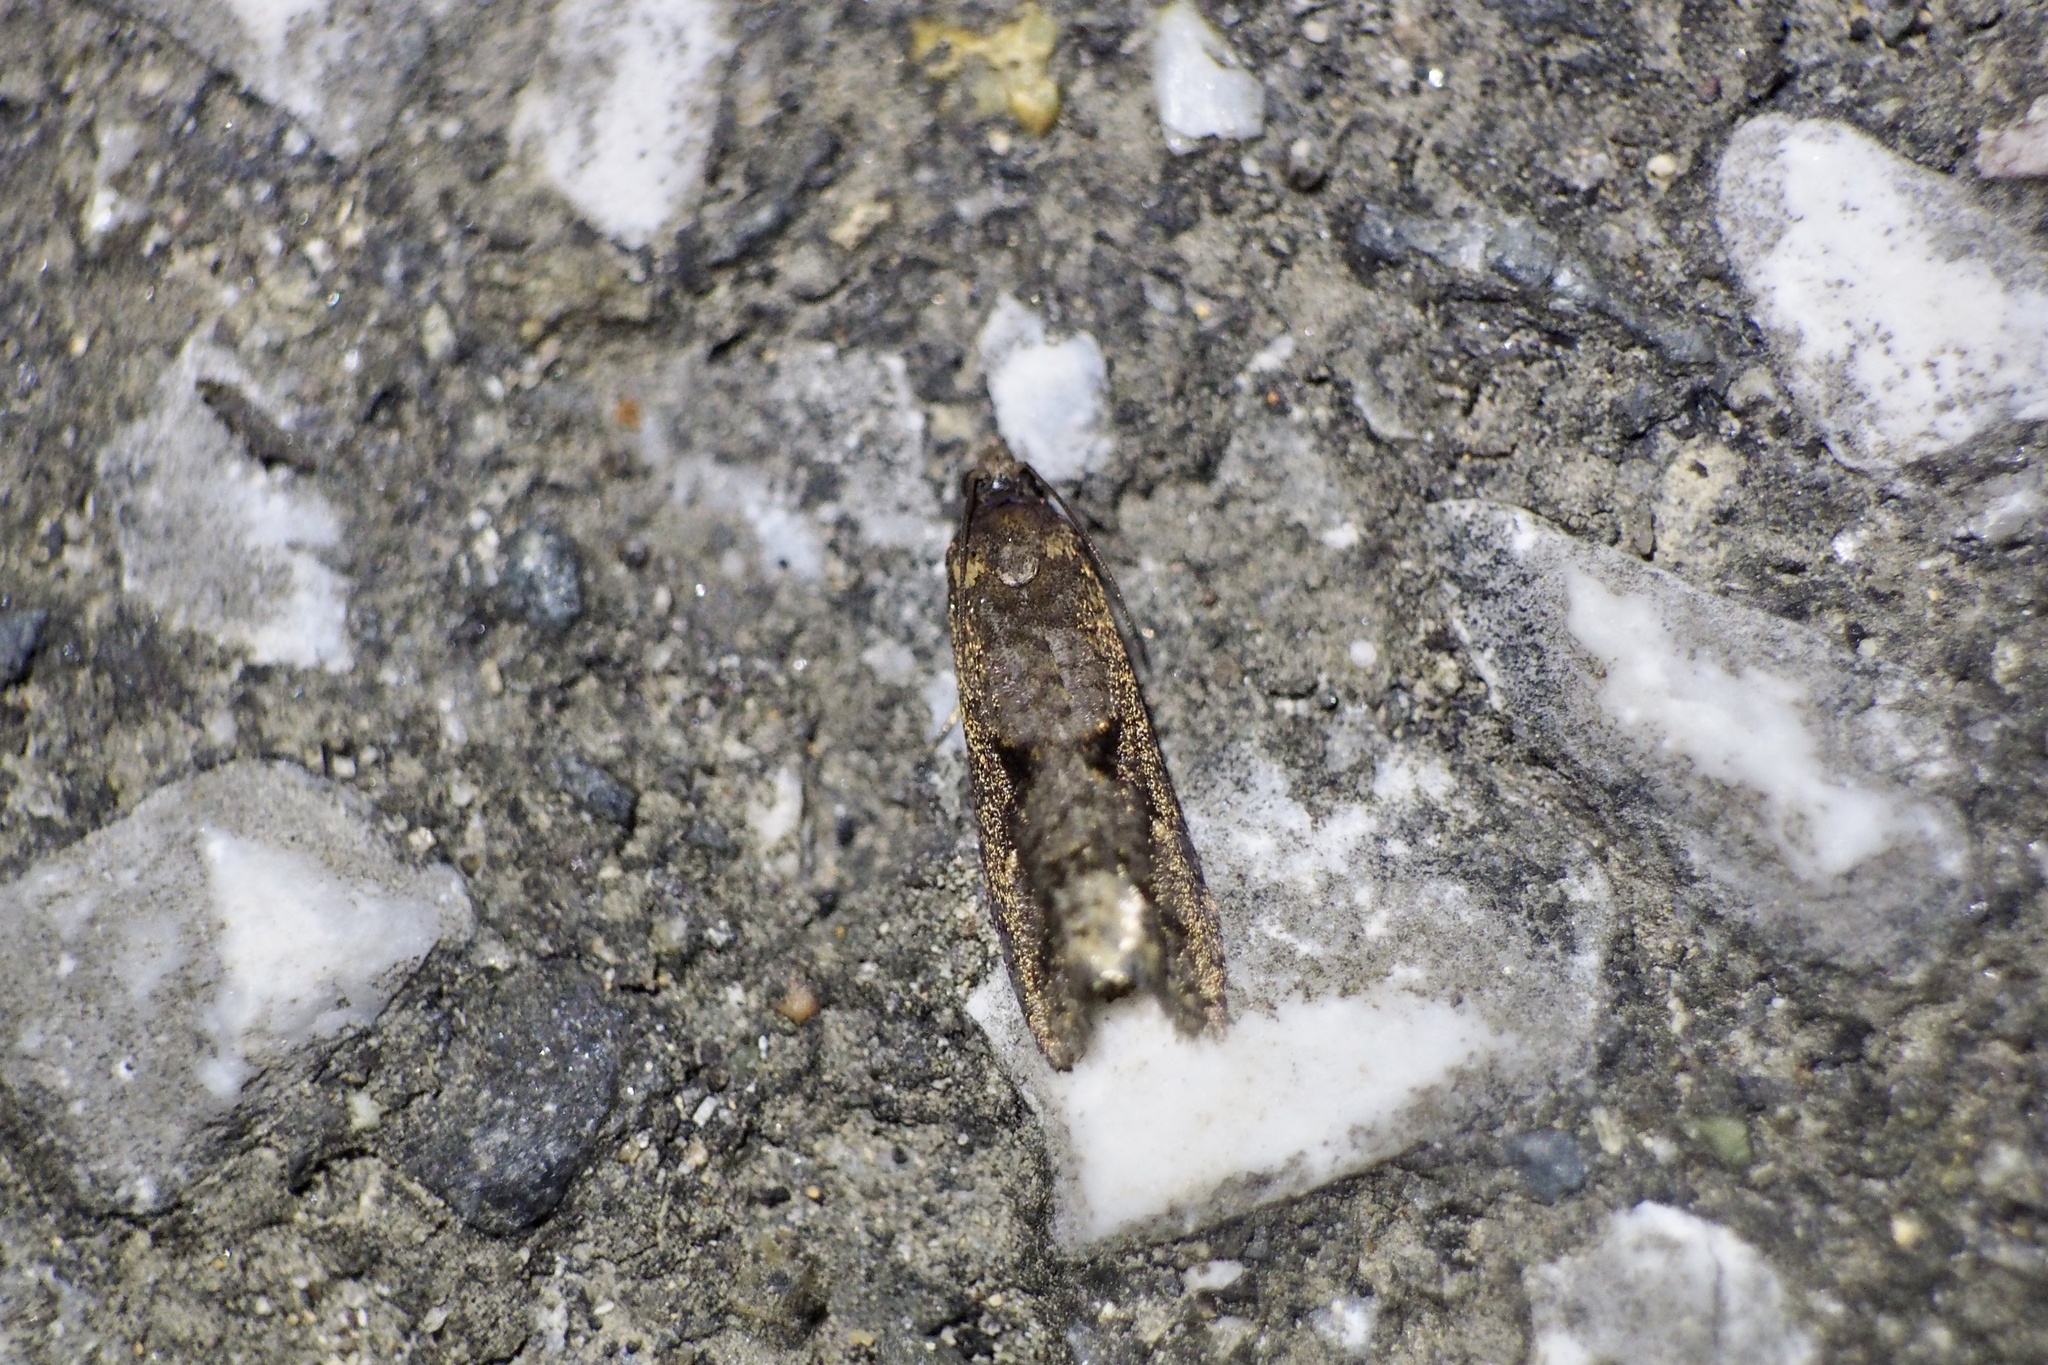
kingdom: Animalia
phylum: Arthropoda
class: Insecta
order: Lepidoptera
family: Tortricidae
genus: Cryptaspasma
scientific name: Cryptaspasma angulicostana
